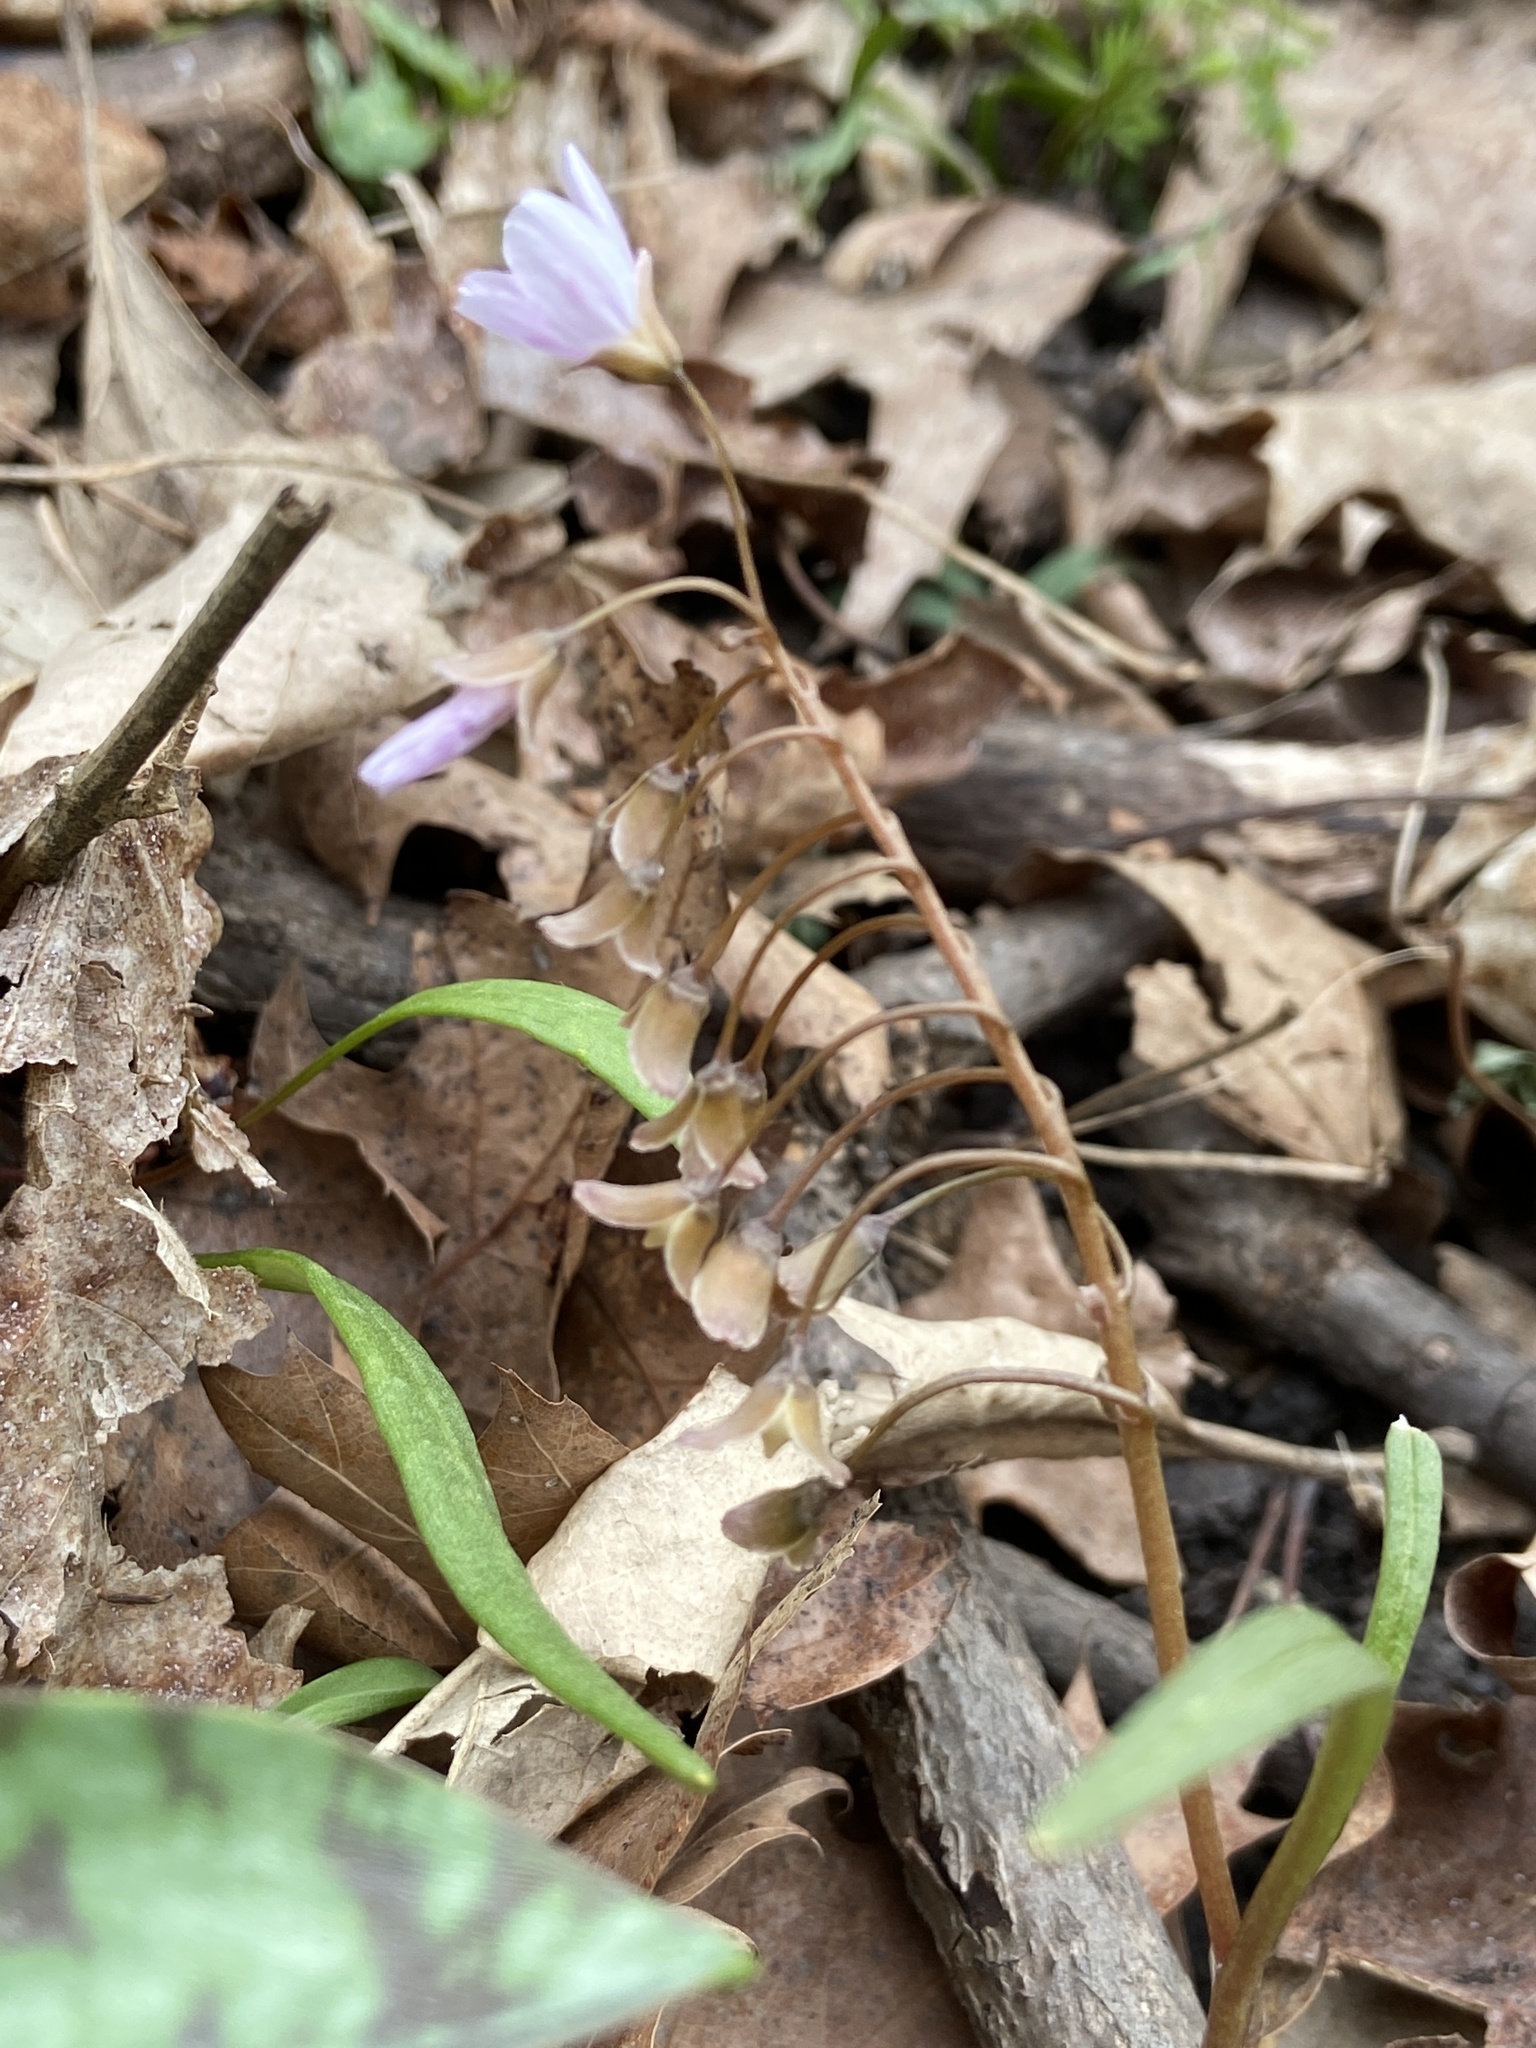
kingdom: Plantae
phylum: Tracheophyta
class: Magnoliopsida
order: Caryophyllales
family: Montiaceae
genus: Claytonia
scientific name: Claytonia virginica
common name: Virginia springbeauty
